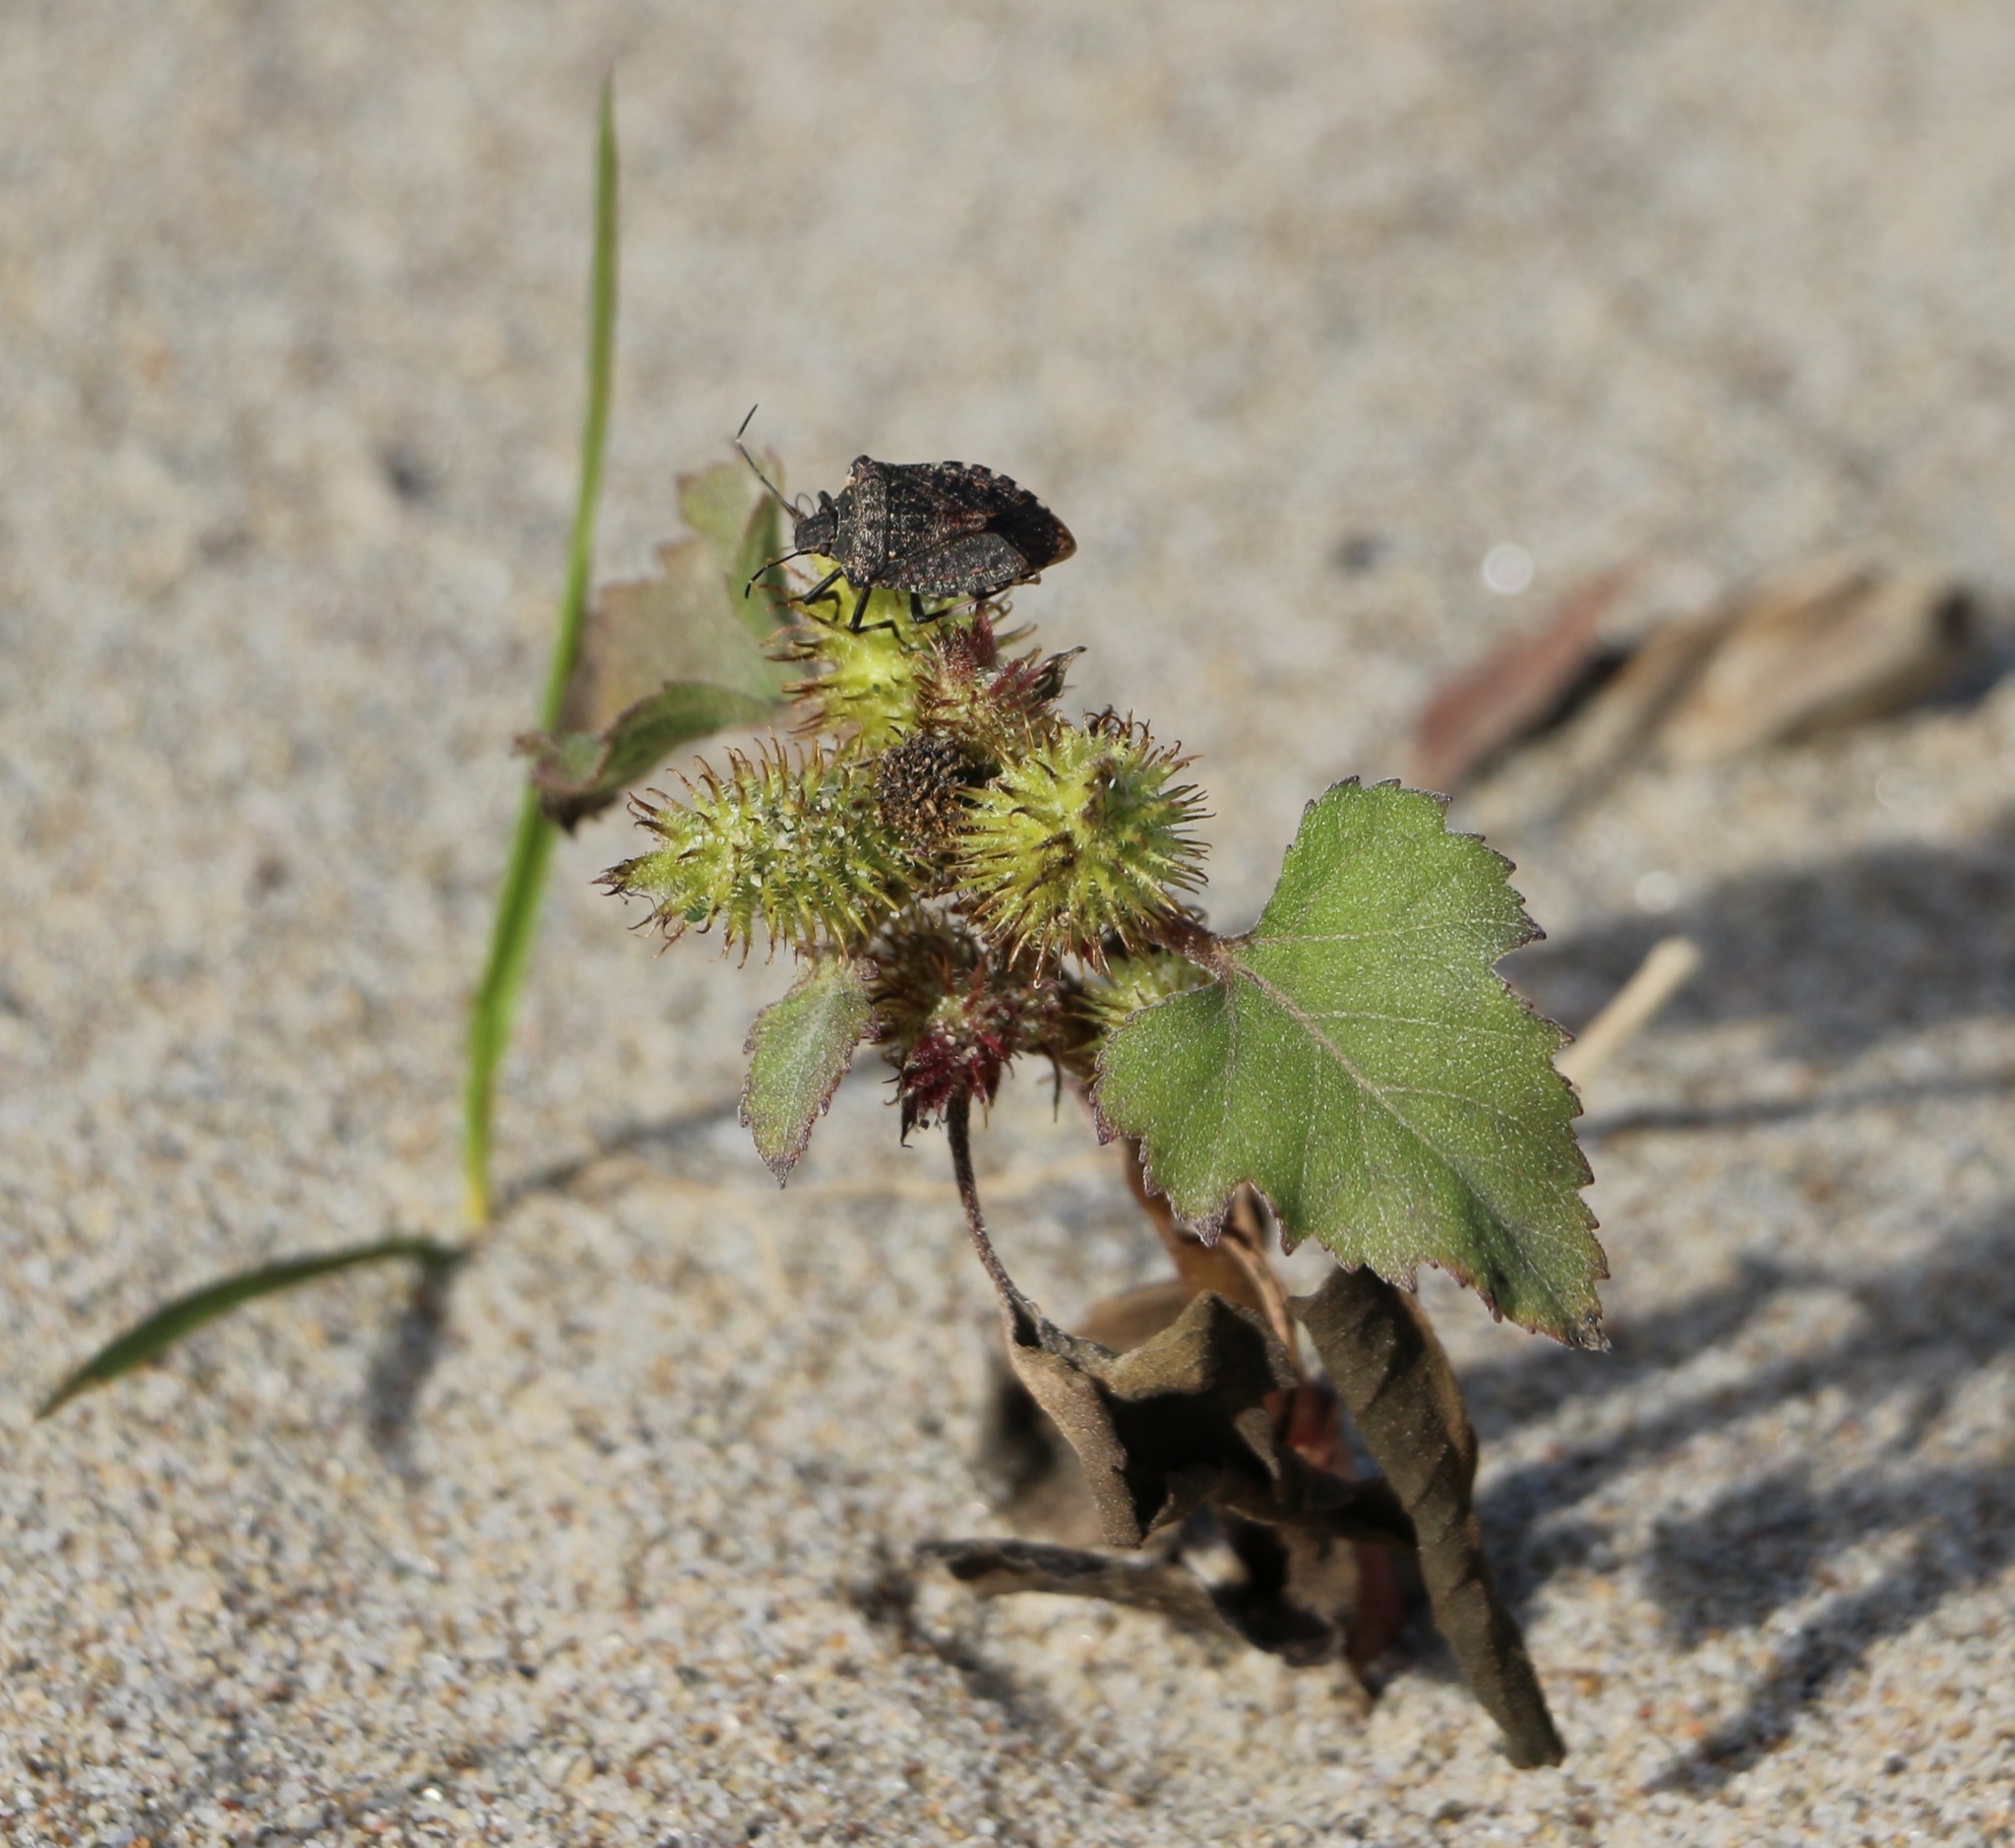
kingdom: Plantae
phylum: Tracheophyta
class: Magnoliopsida
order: Asterales
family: Asteraceae
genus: Xanthium
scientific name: Xanthium orientale
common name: Californian burr
